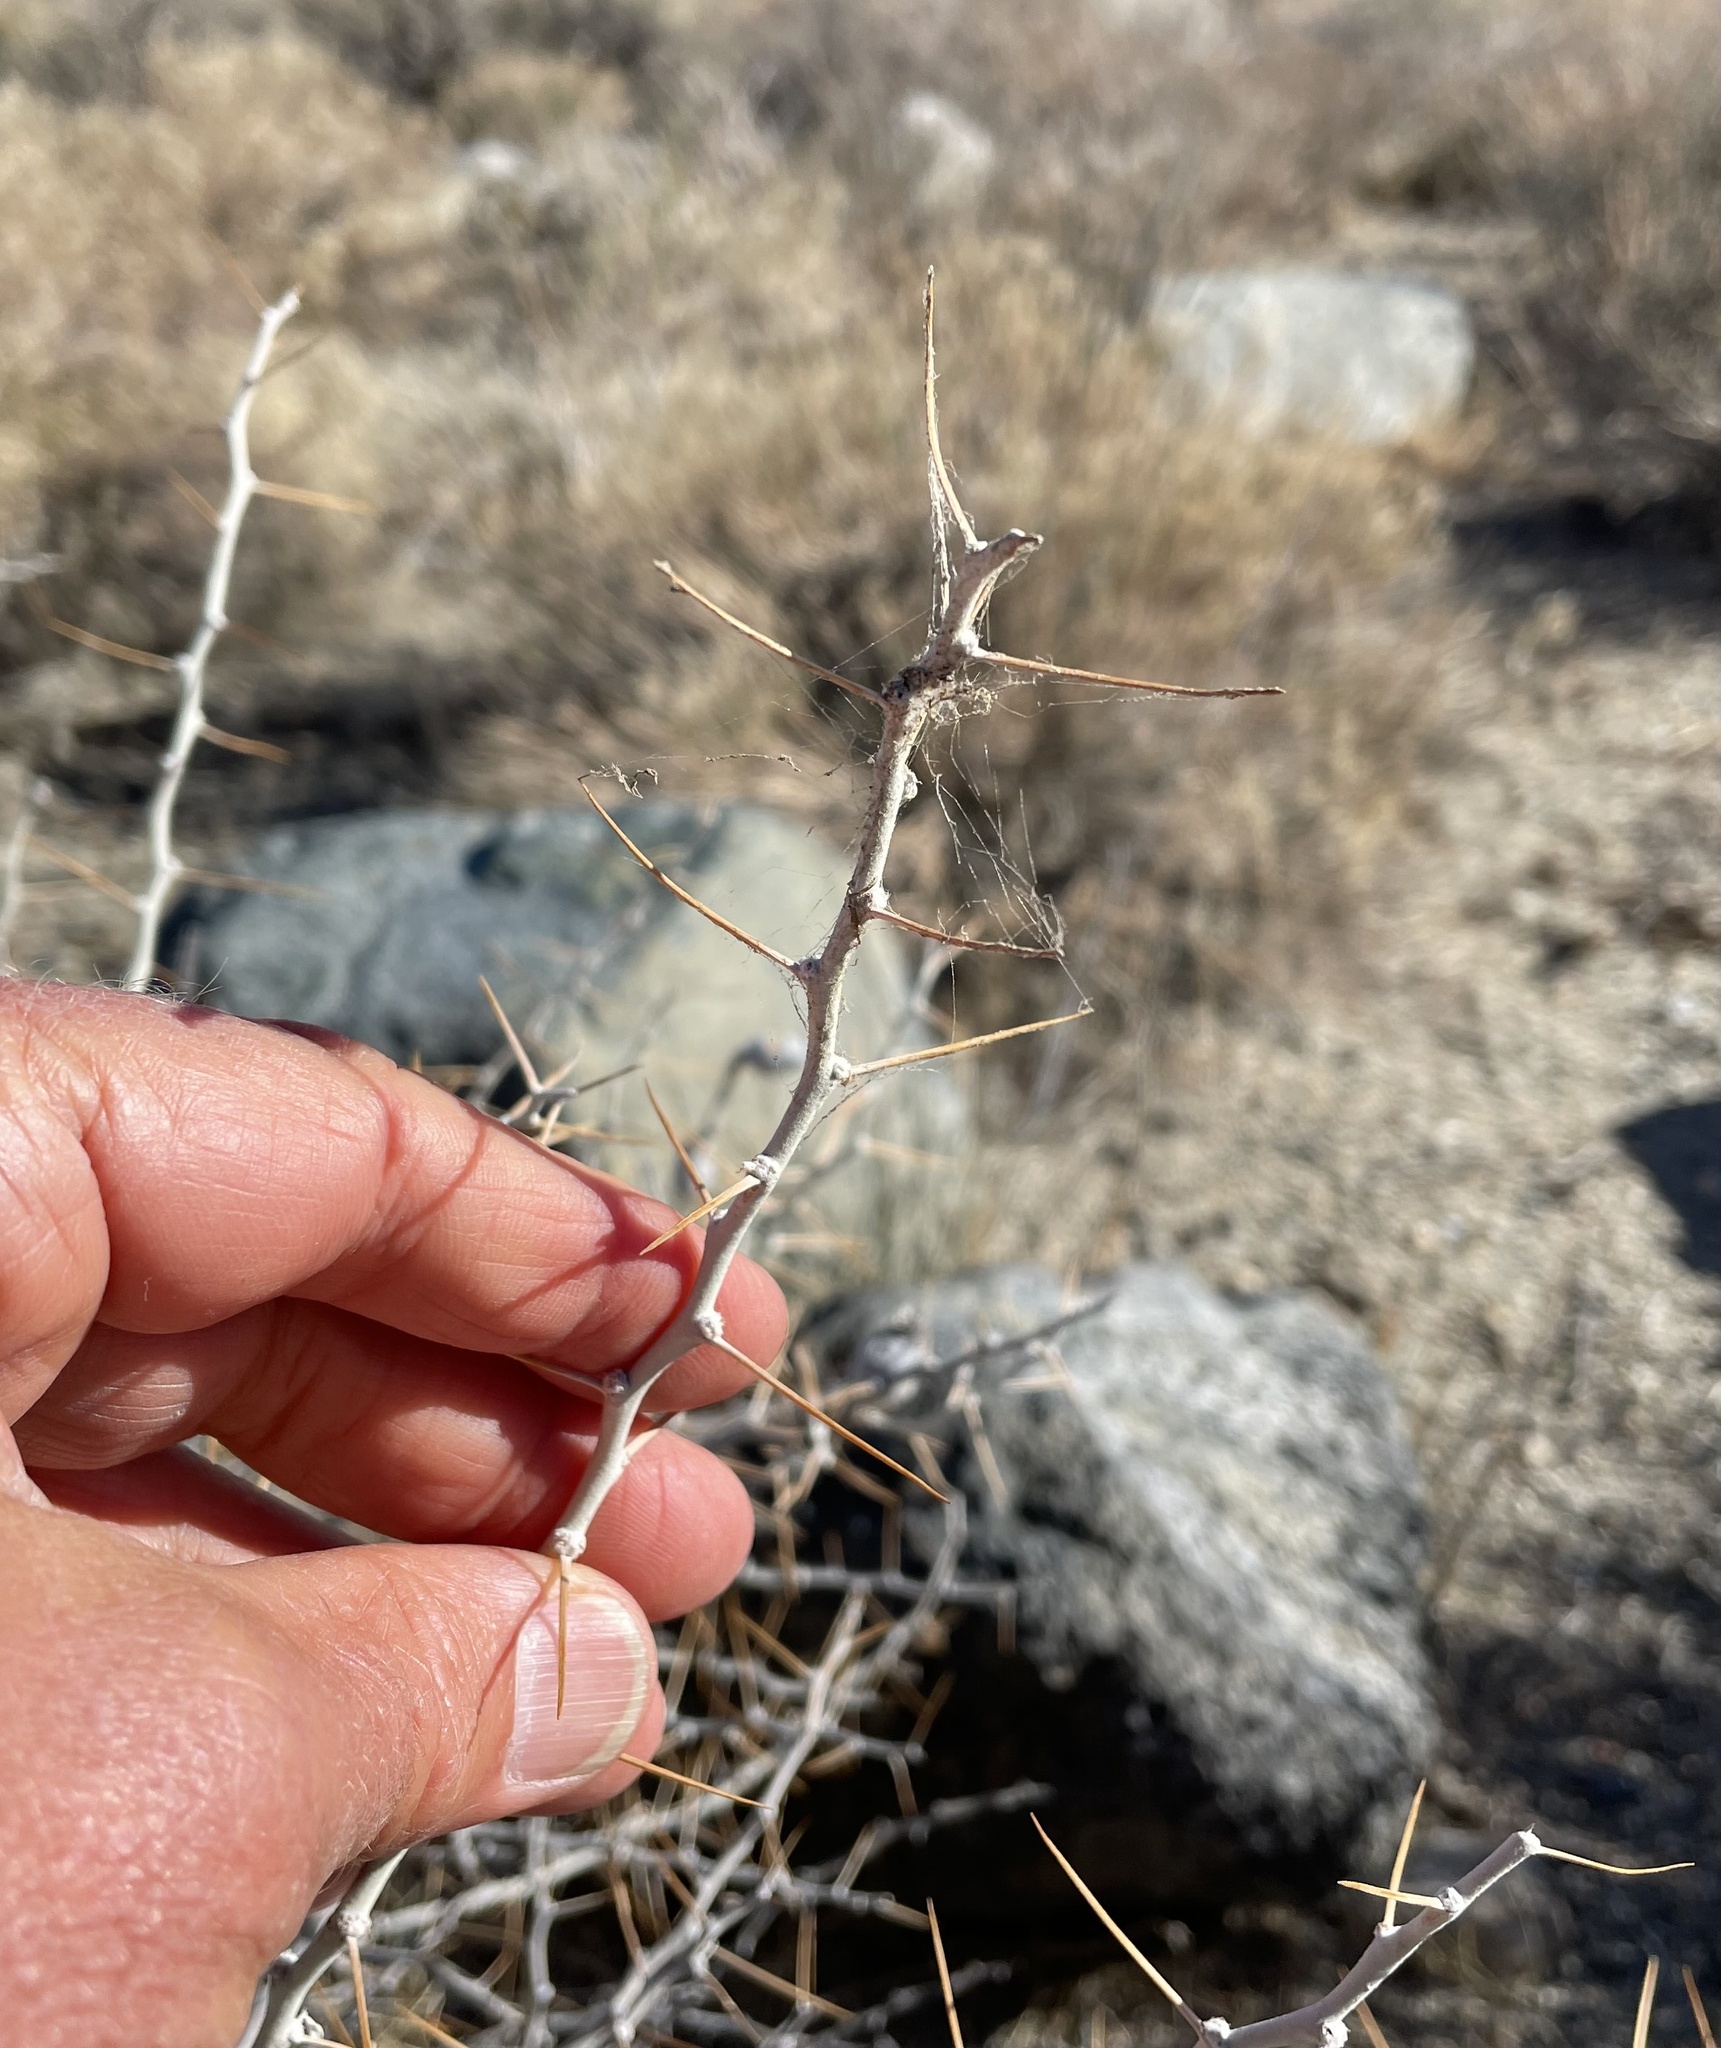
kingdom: Plantae
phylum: Tracheophyta
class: Magnoliopsida
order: Asterales
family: Asteraceae
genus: Tetradymia
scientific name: Tetradymia axillaris
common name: Long-spine horsebrush
